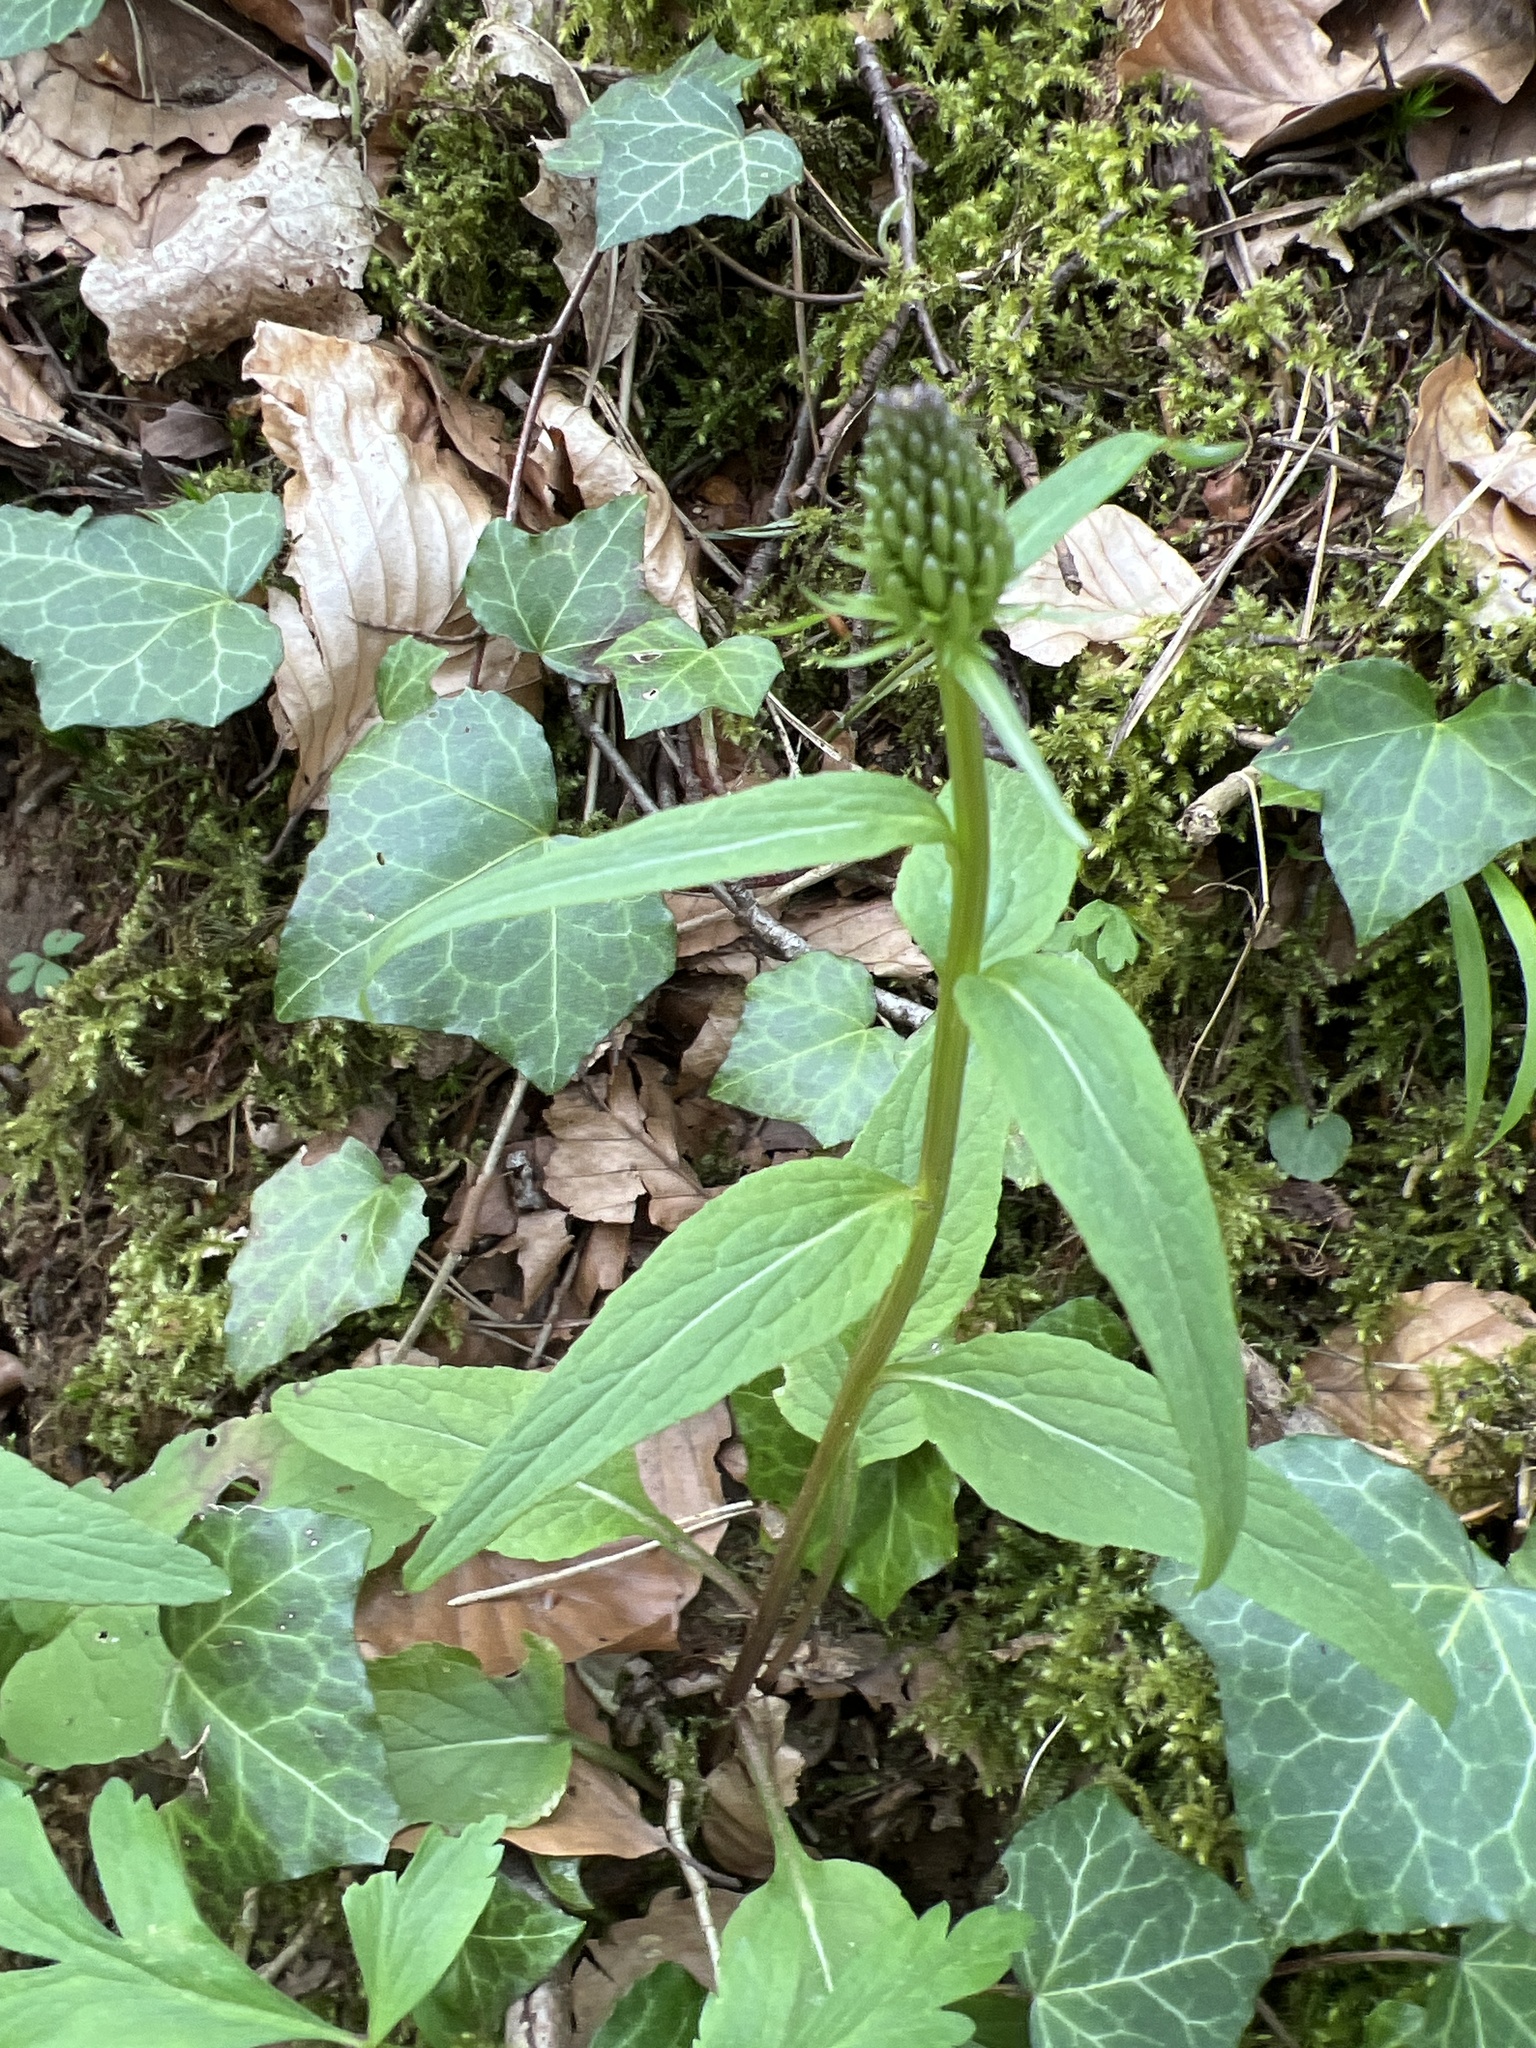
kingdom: Plantae
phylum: Tracheophyta
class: Magnoliopsida
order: Asterales
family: Campanulaceae
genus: Phyteuma
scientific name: Phyteuma nigrum
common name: Black rampion
